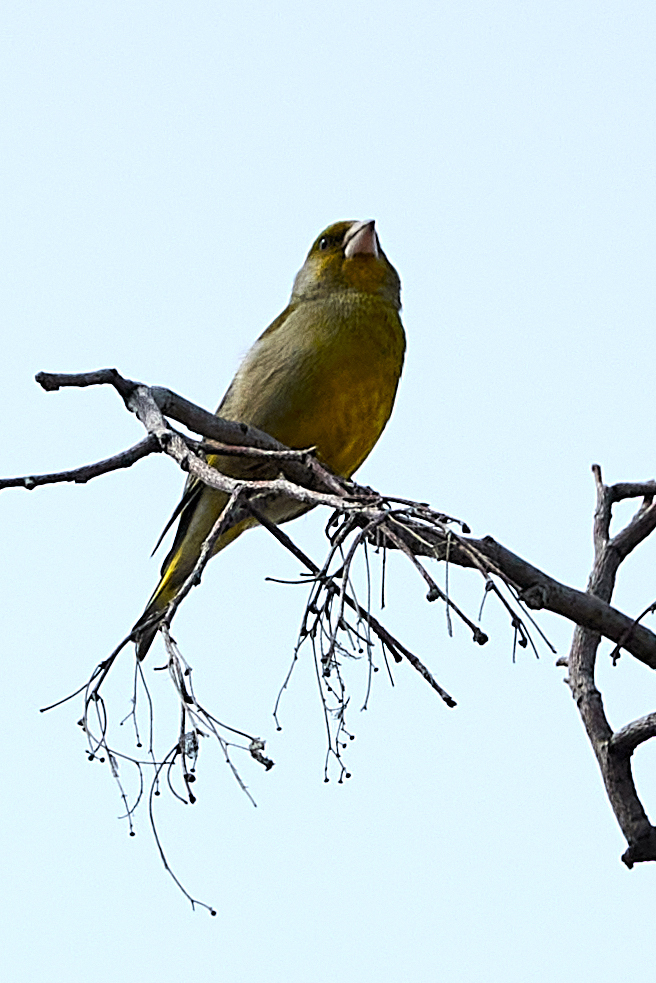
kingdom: Plantae
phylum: Tracheophyta
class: Liliopsida
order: Poales
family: Poaceae
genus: Chloris
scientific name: Chloris chloris
